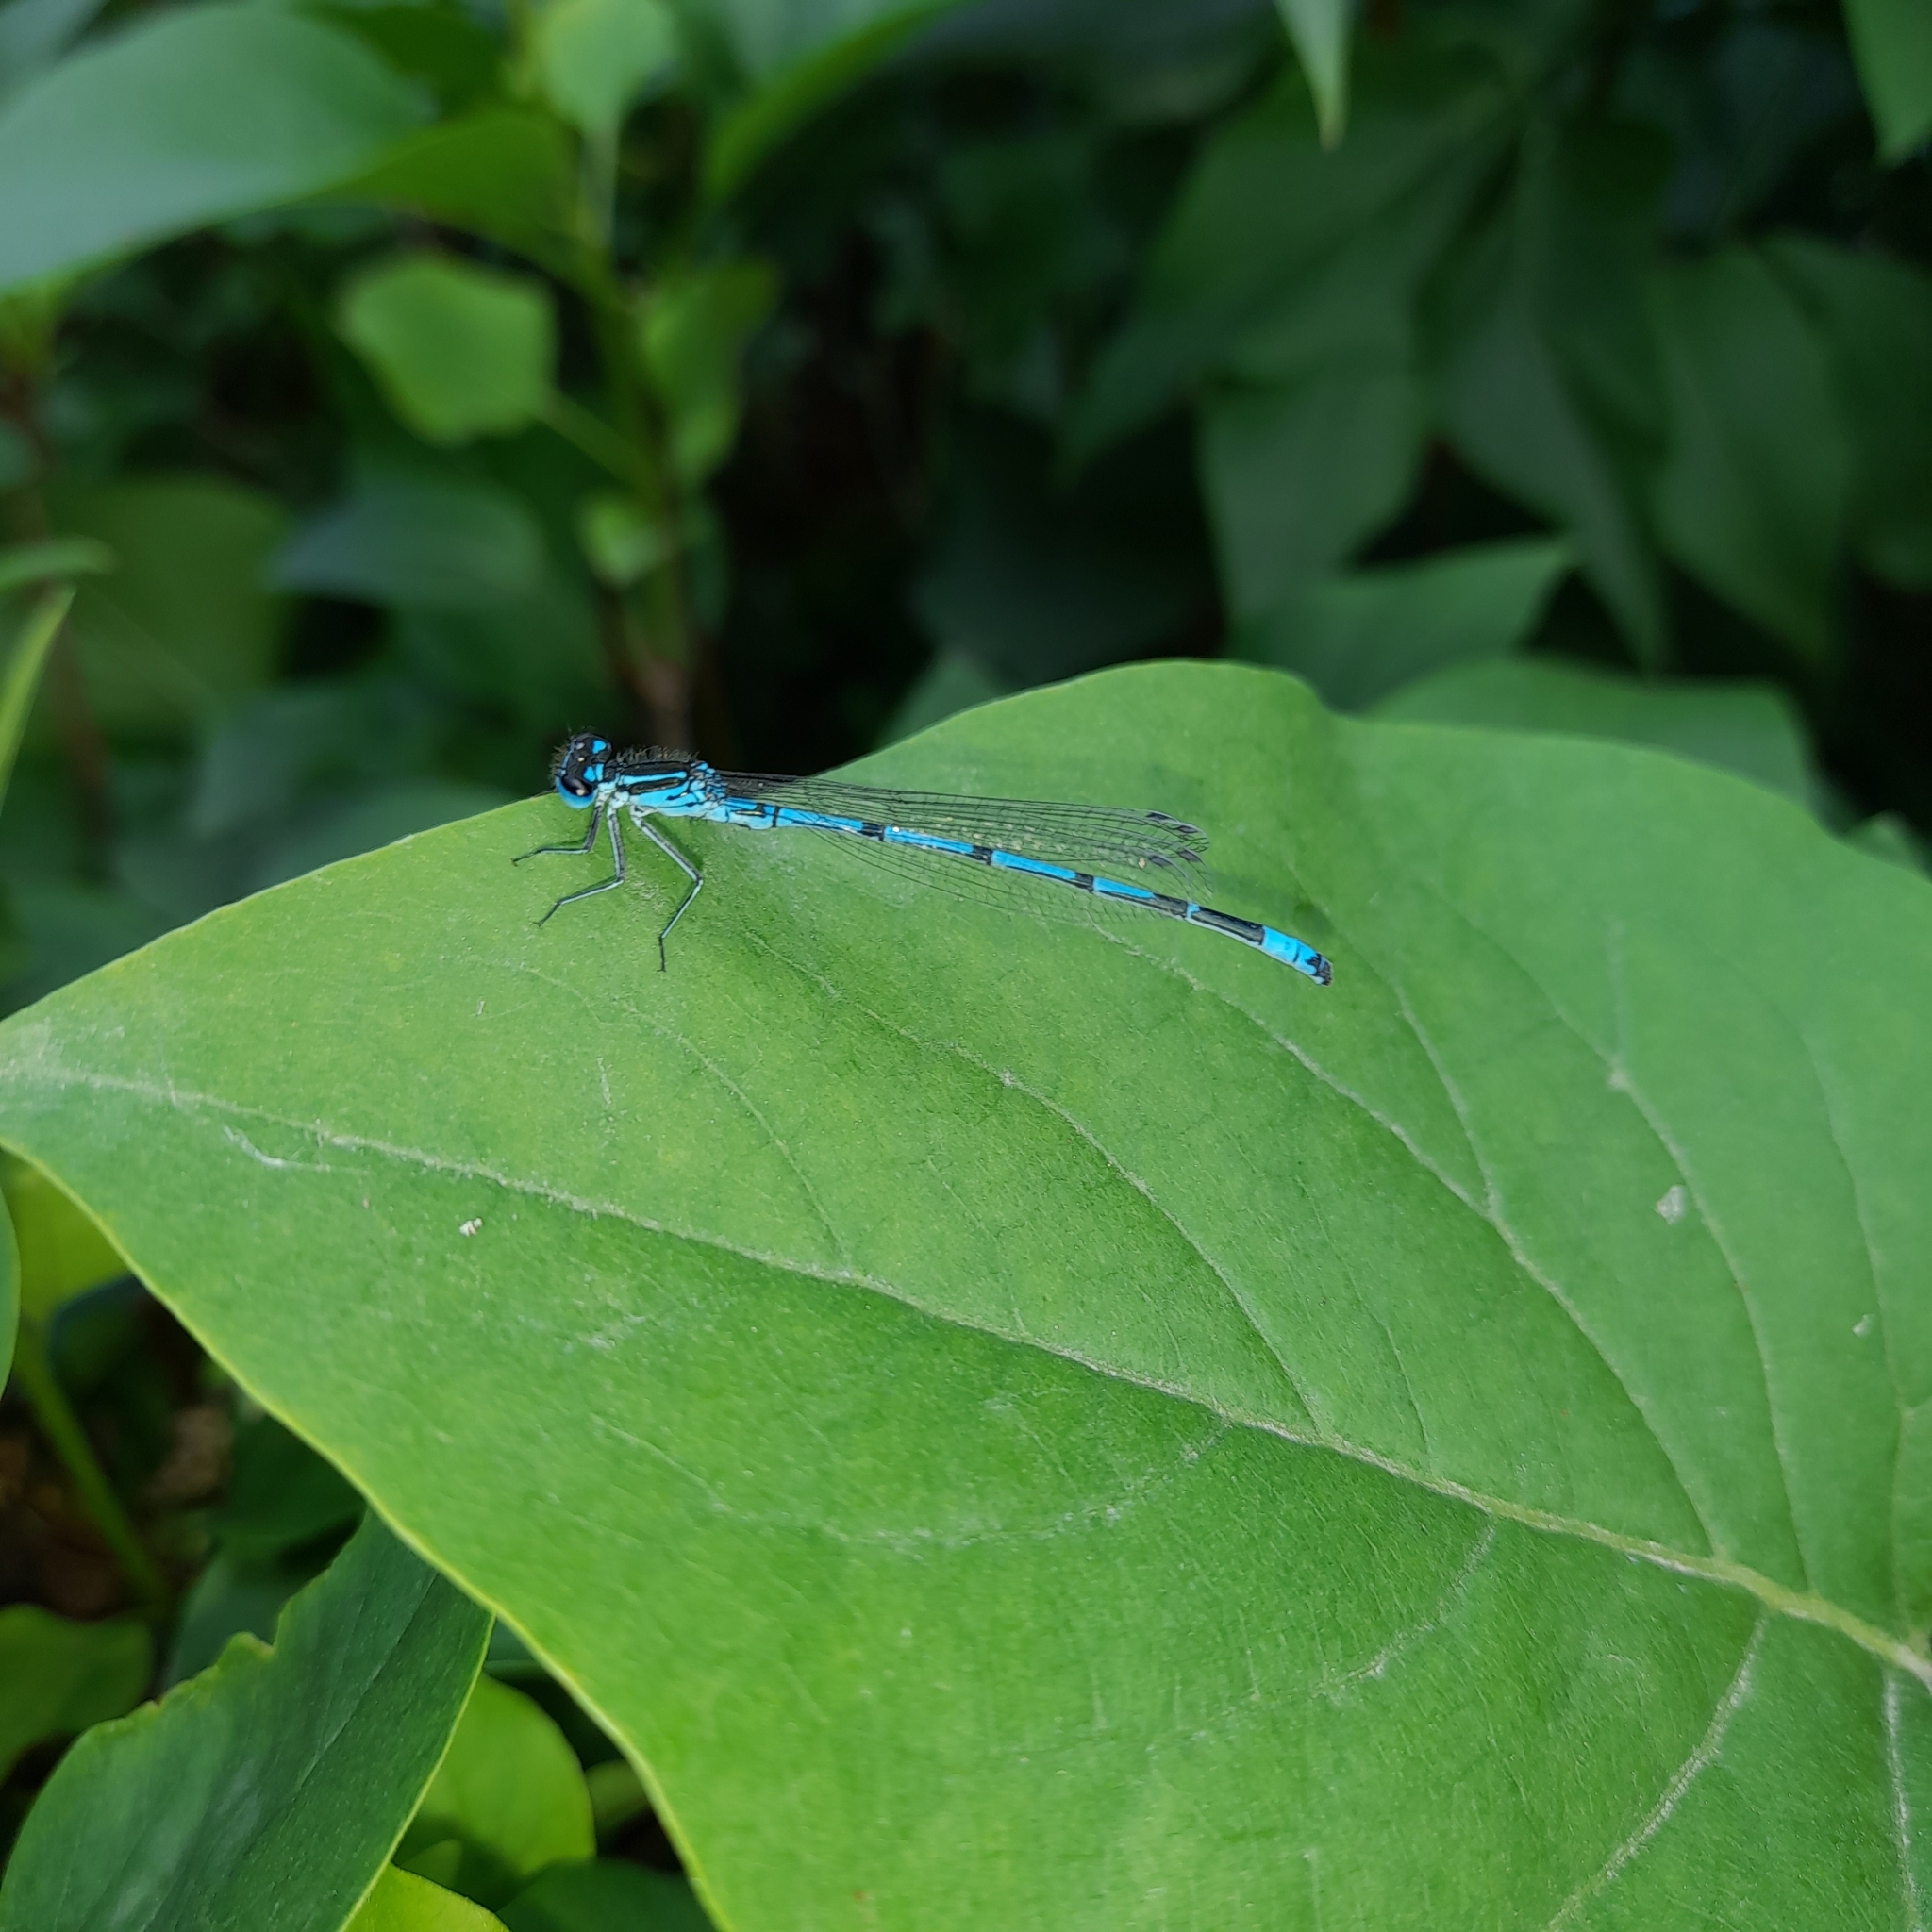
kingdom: Animalia
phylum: Arthropoda
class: Insecta
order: Odonata
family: Coenagrionidae
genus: Coenagrion
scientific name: Coenagrion puella
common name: Azure damselfly
